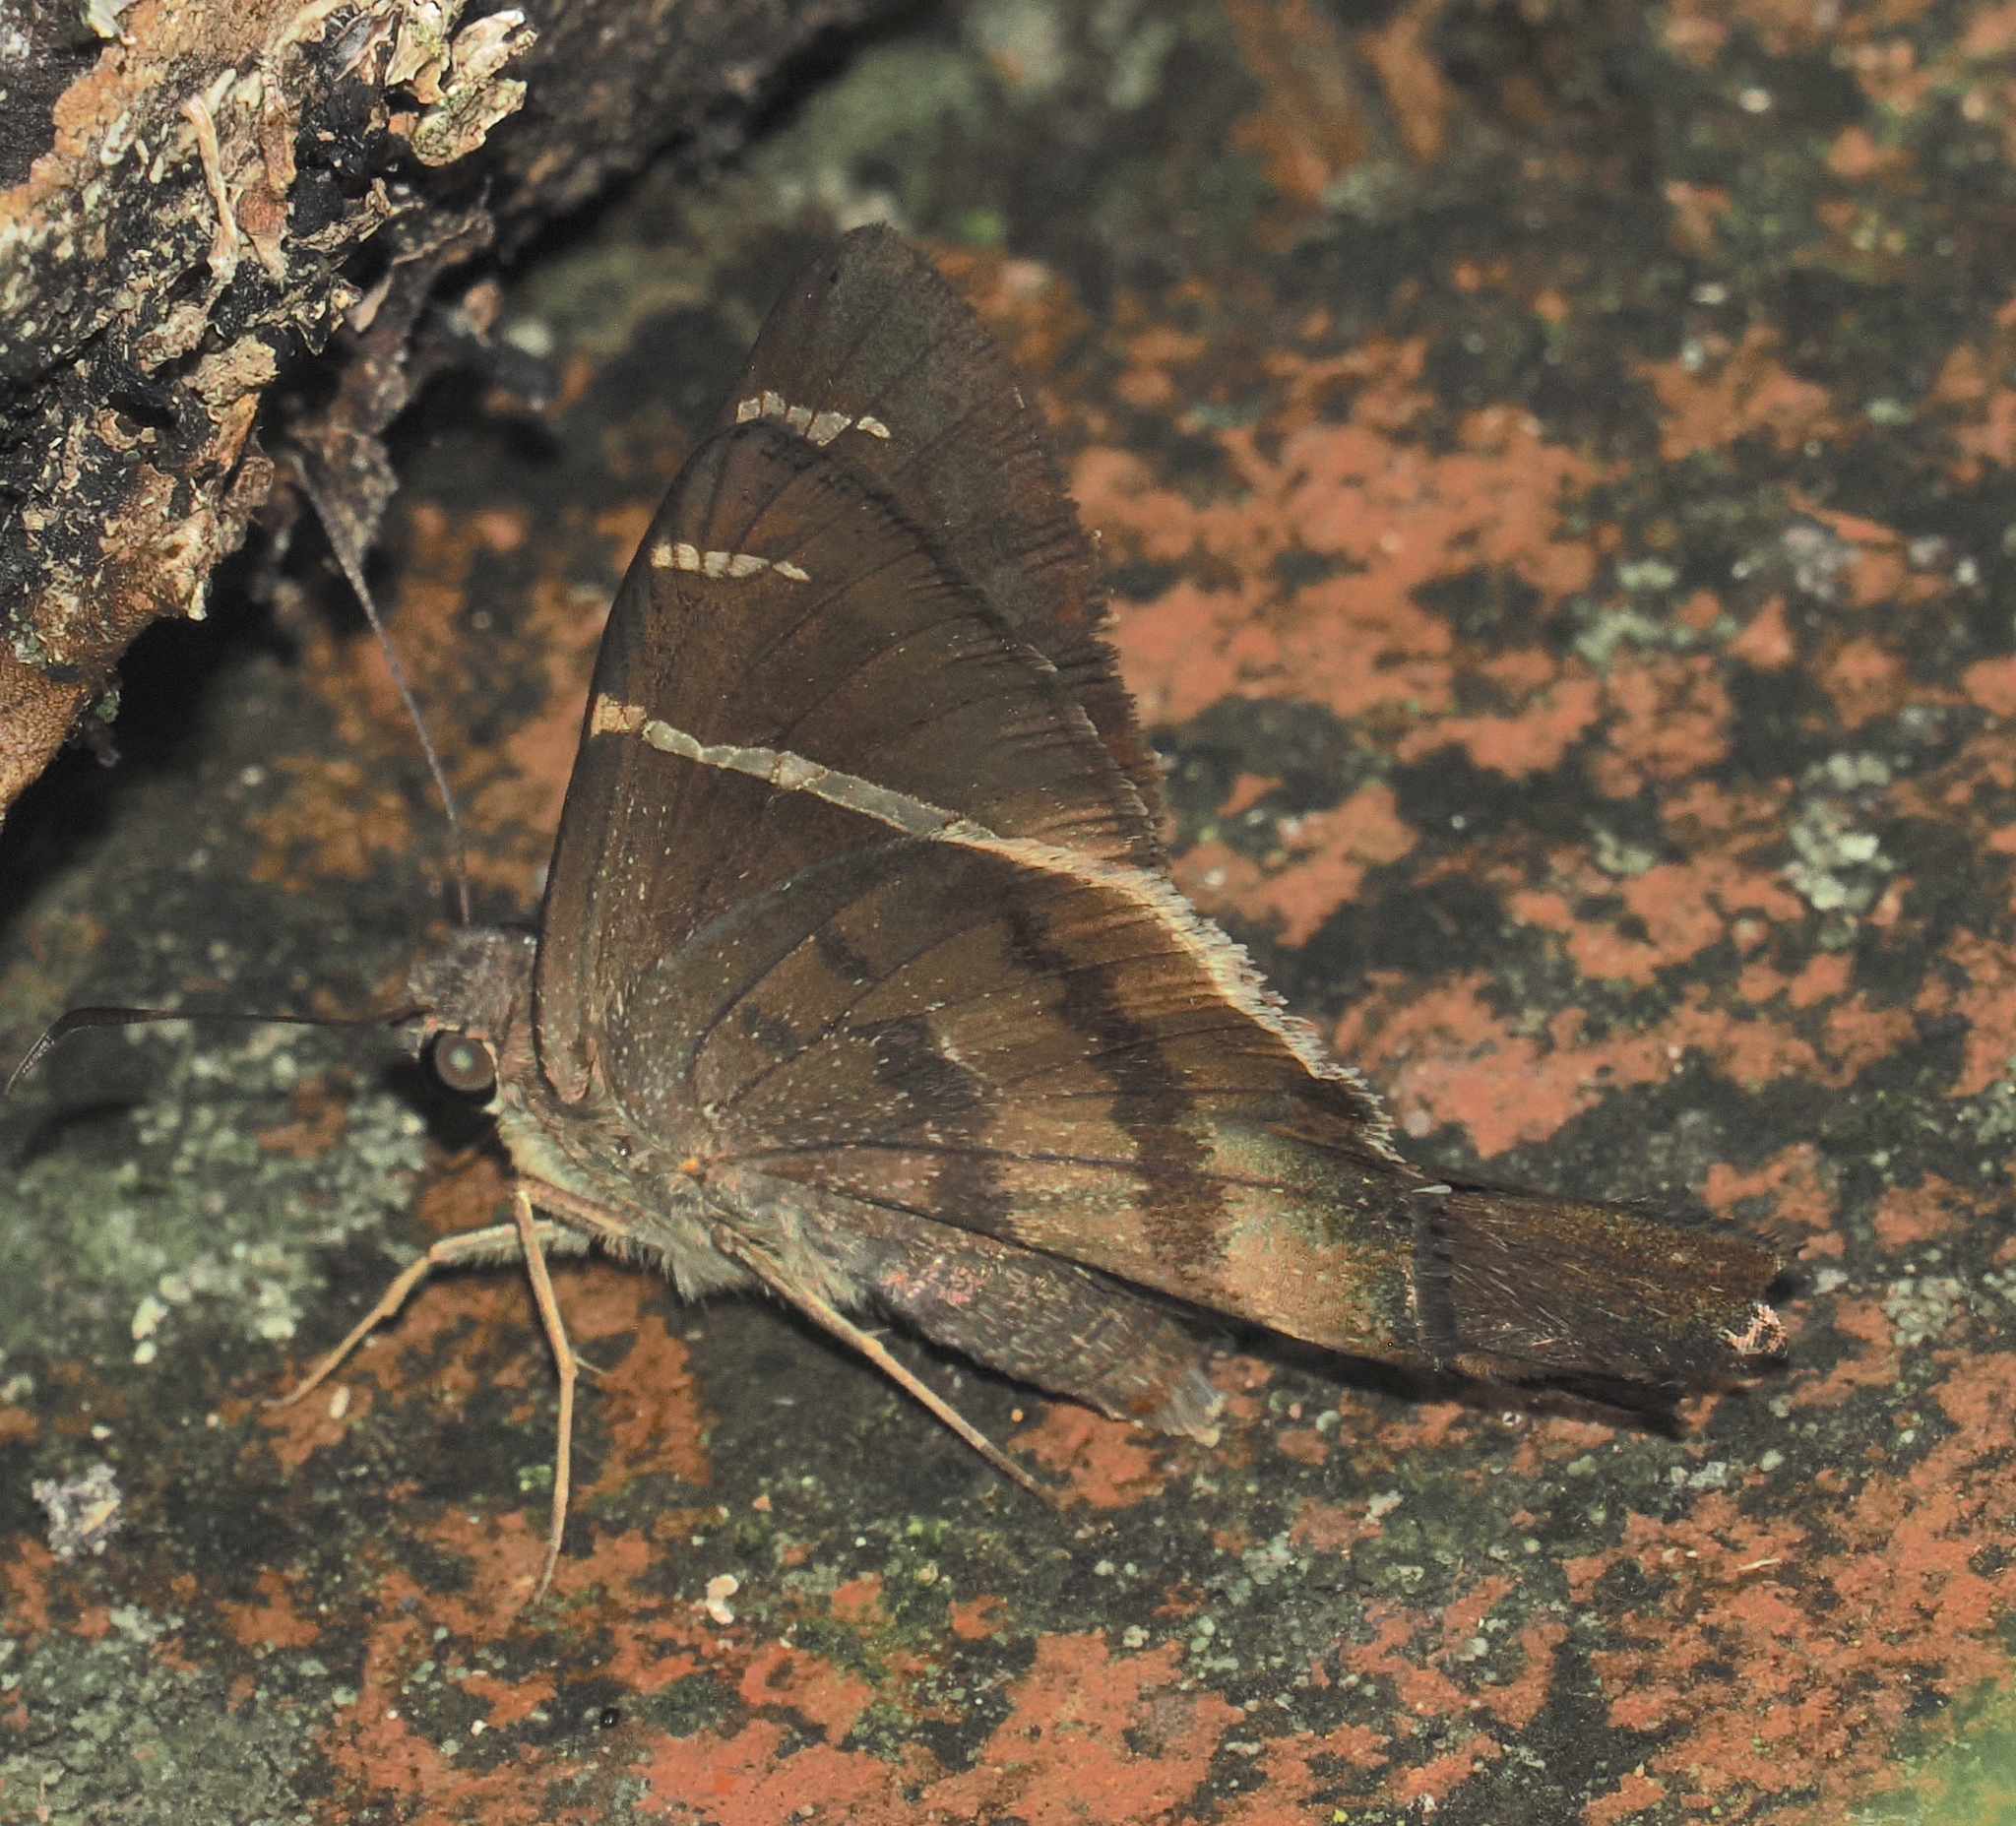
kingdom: Animalia
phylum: Arthropoda
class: Insecta
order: Lepidoptera
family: Hesperiidae
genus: Urbanus
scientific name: Urbanus tanna
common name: Tanna longtail
